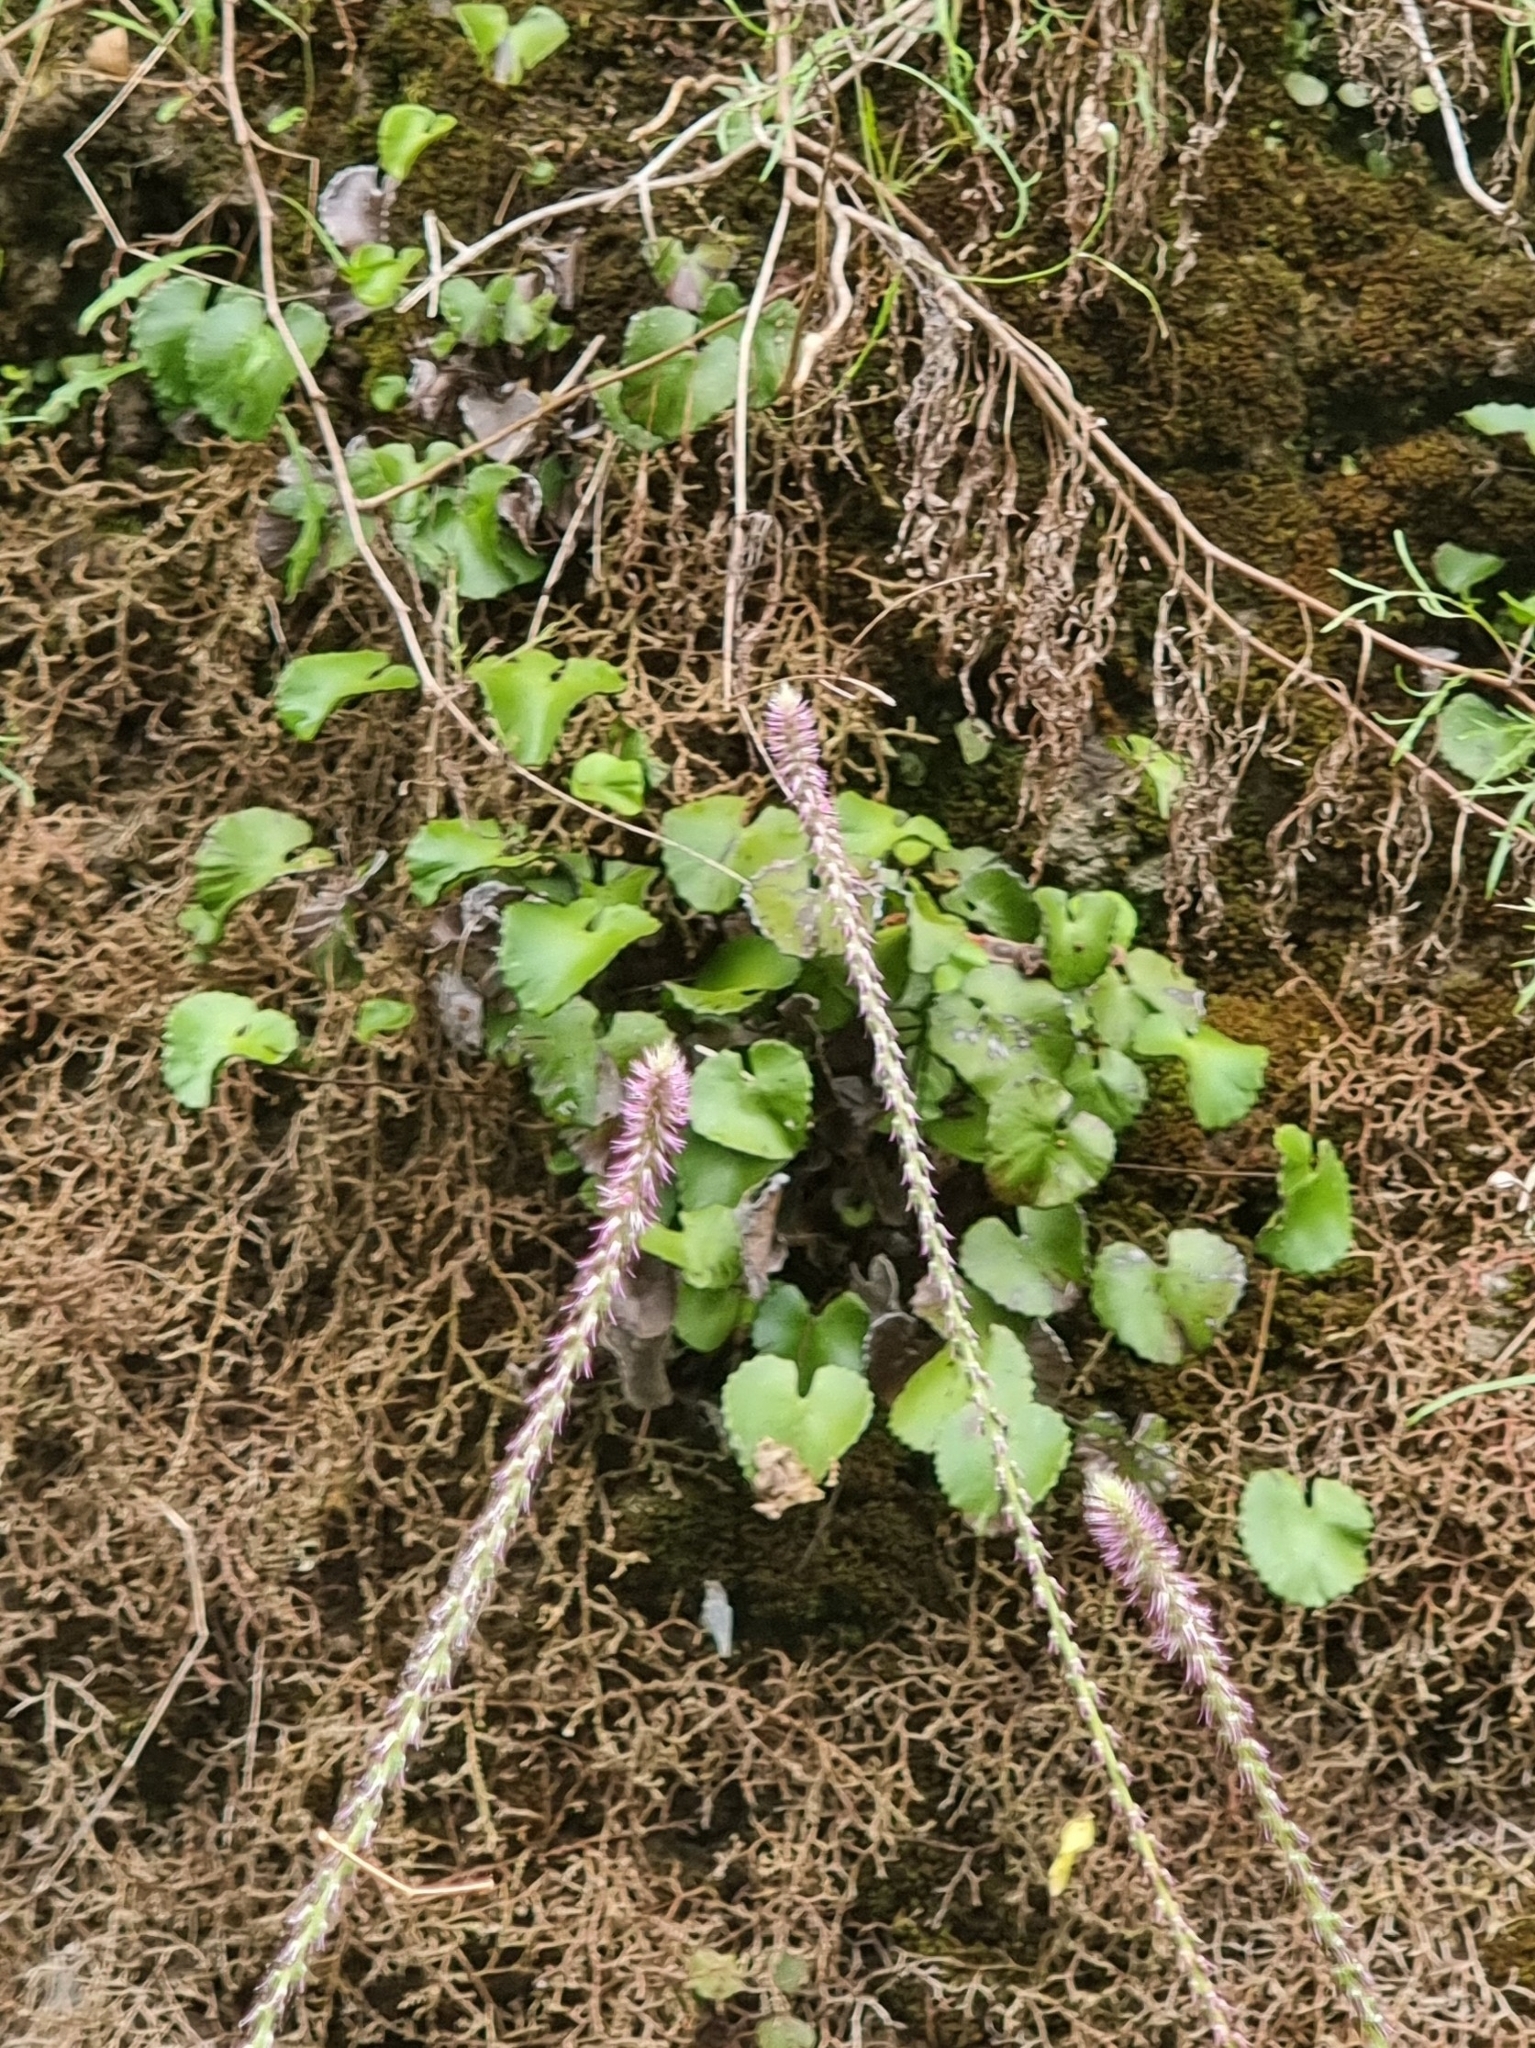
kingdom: Plantae
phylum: Tracheophyta
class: Polypodiopsida
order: Polypodiales
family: Pteridaceae
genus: Adiantum
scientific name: Adiantum reniforme
